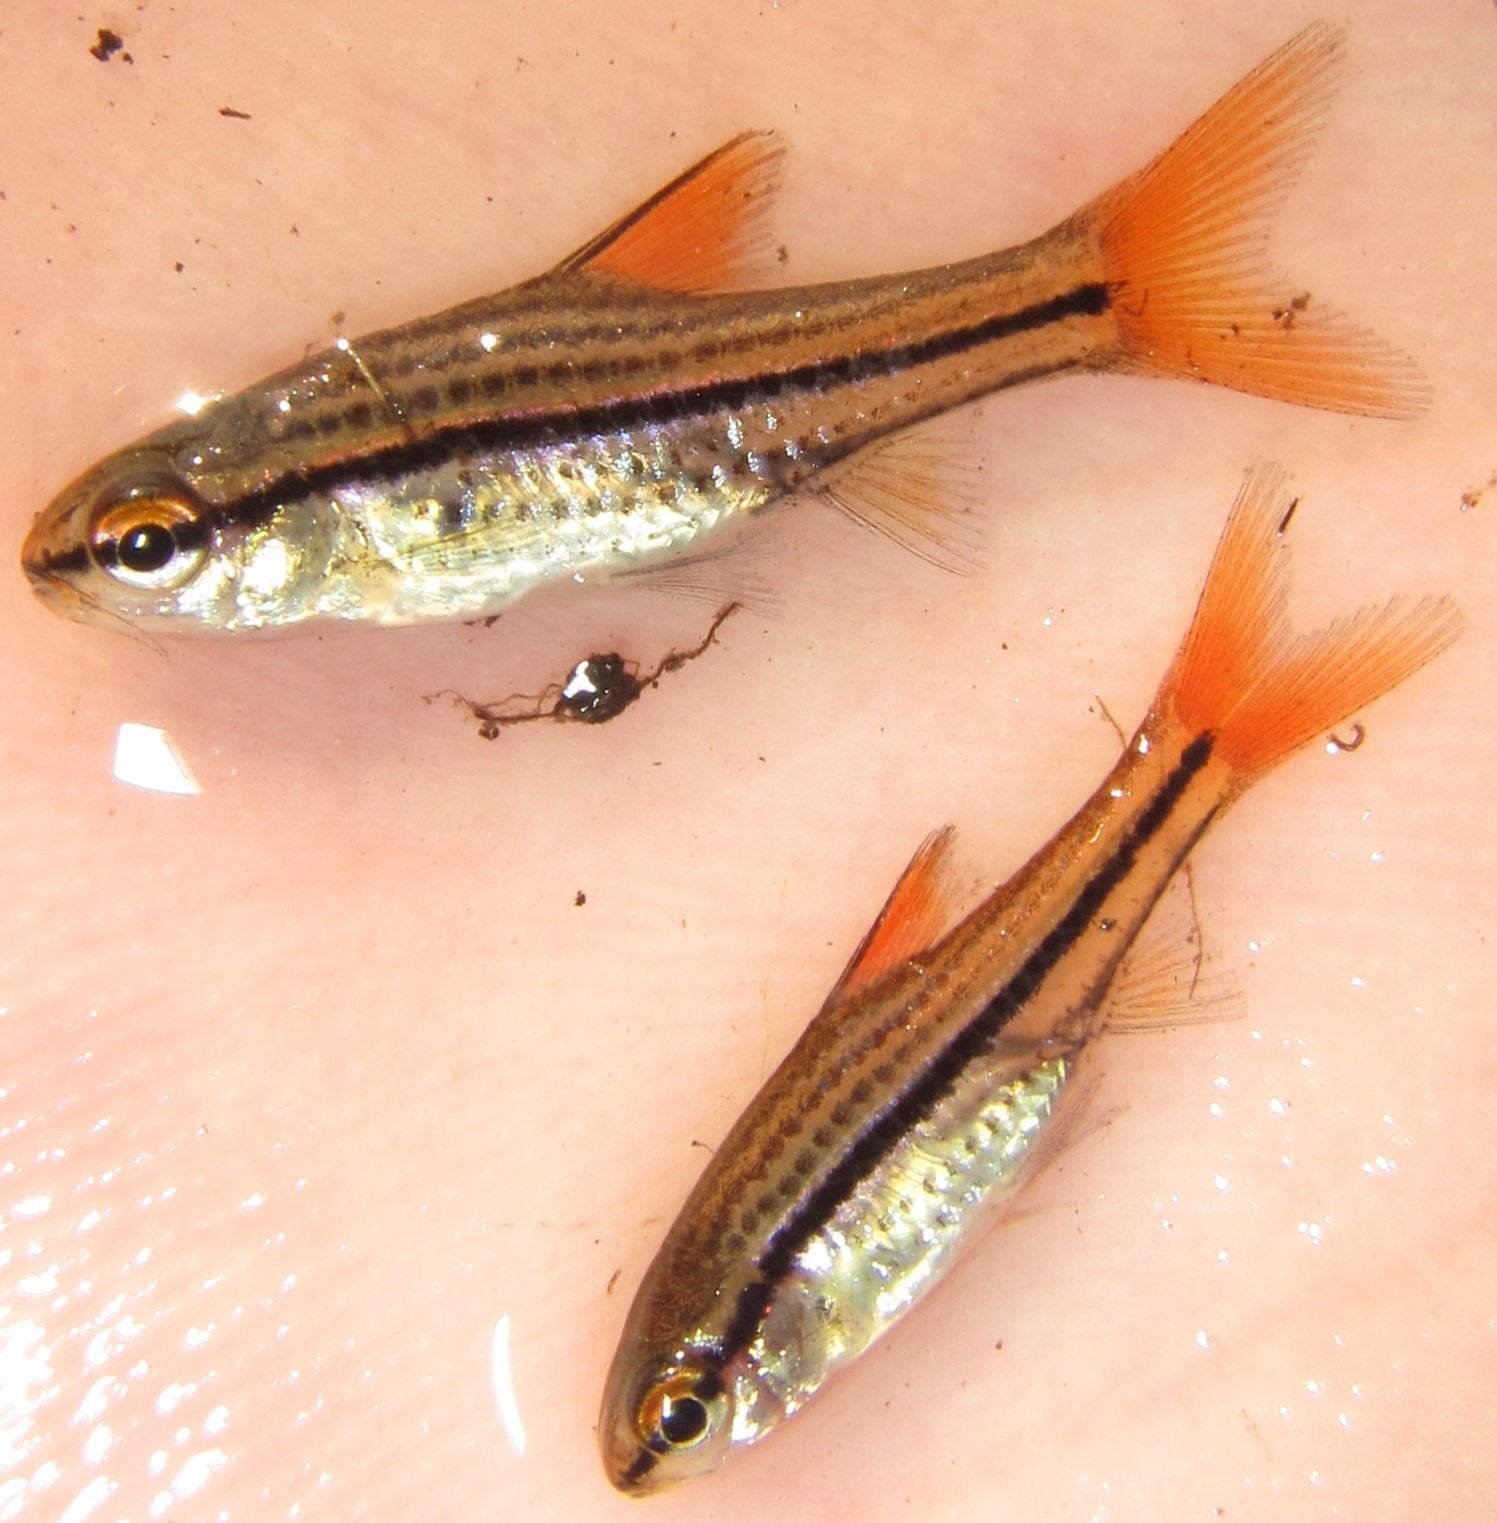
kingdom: Animalia
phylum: Chordata
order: Cypriniformes
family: Cyprinidae
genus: Enteromius
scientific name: Enteromius multilineatus
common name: Copperstripe barb
